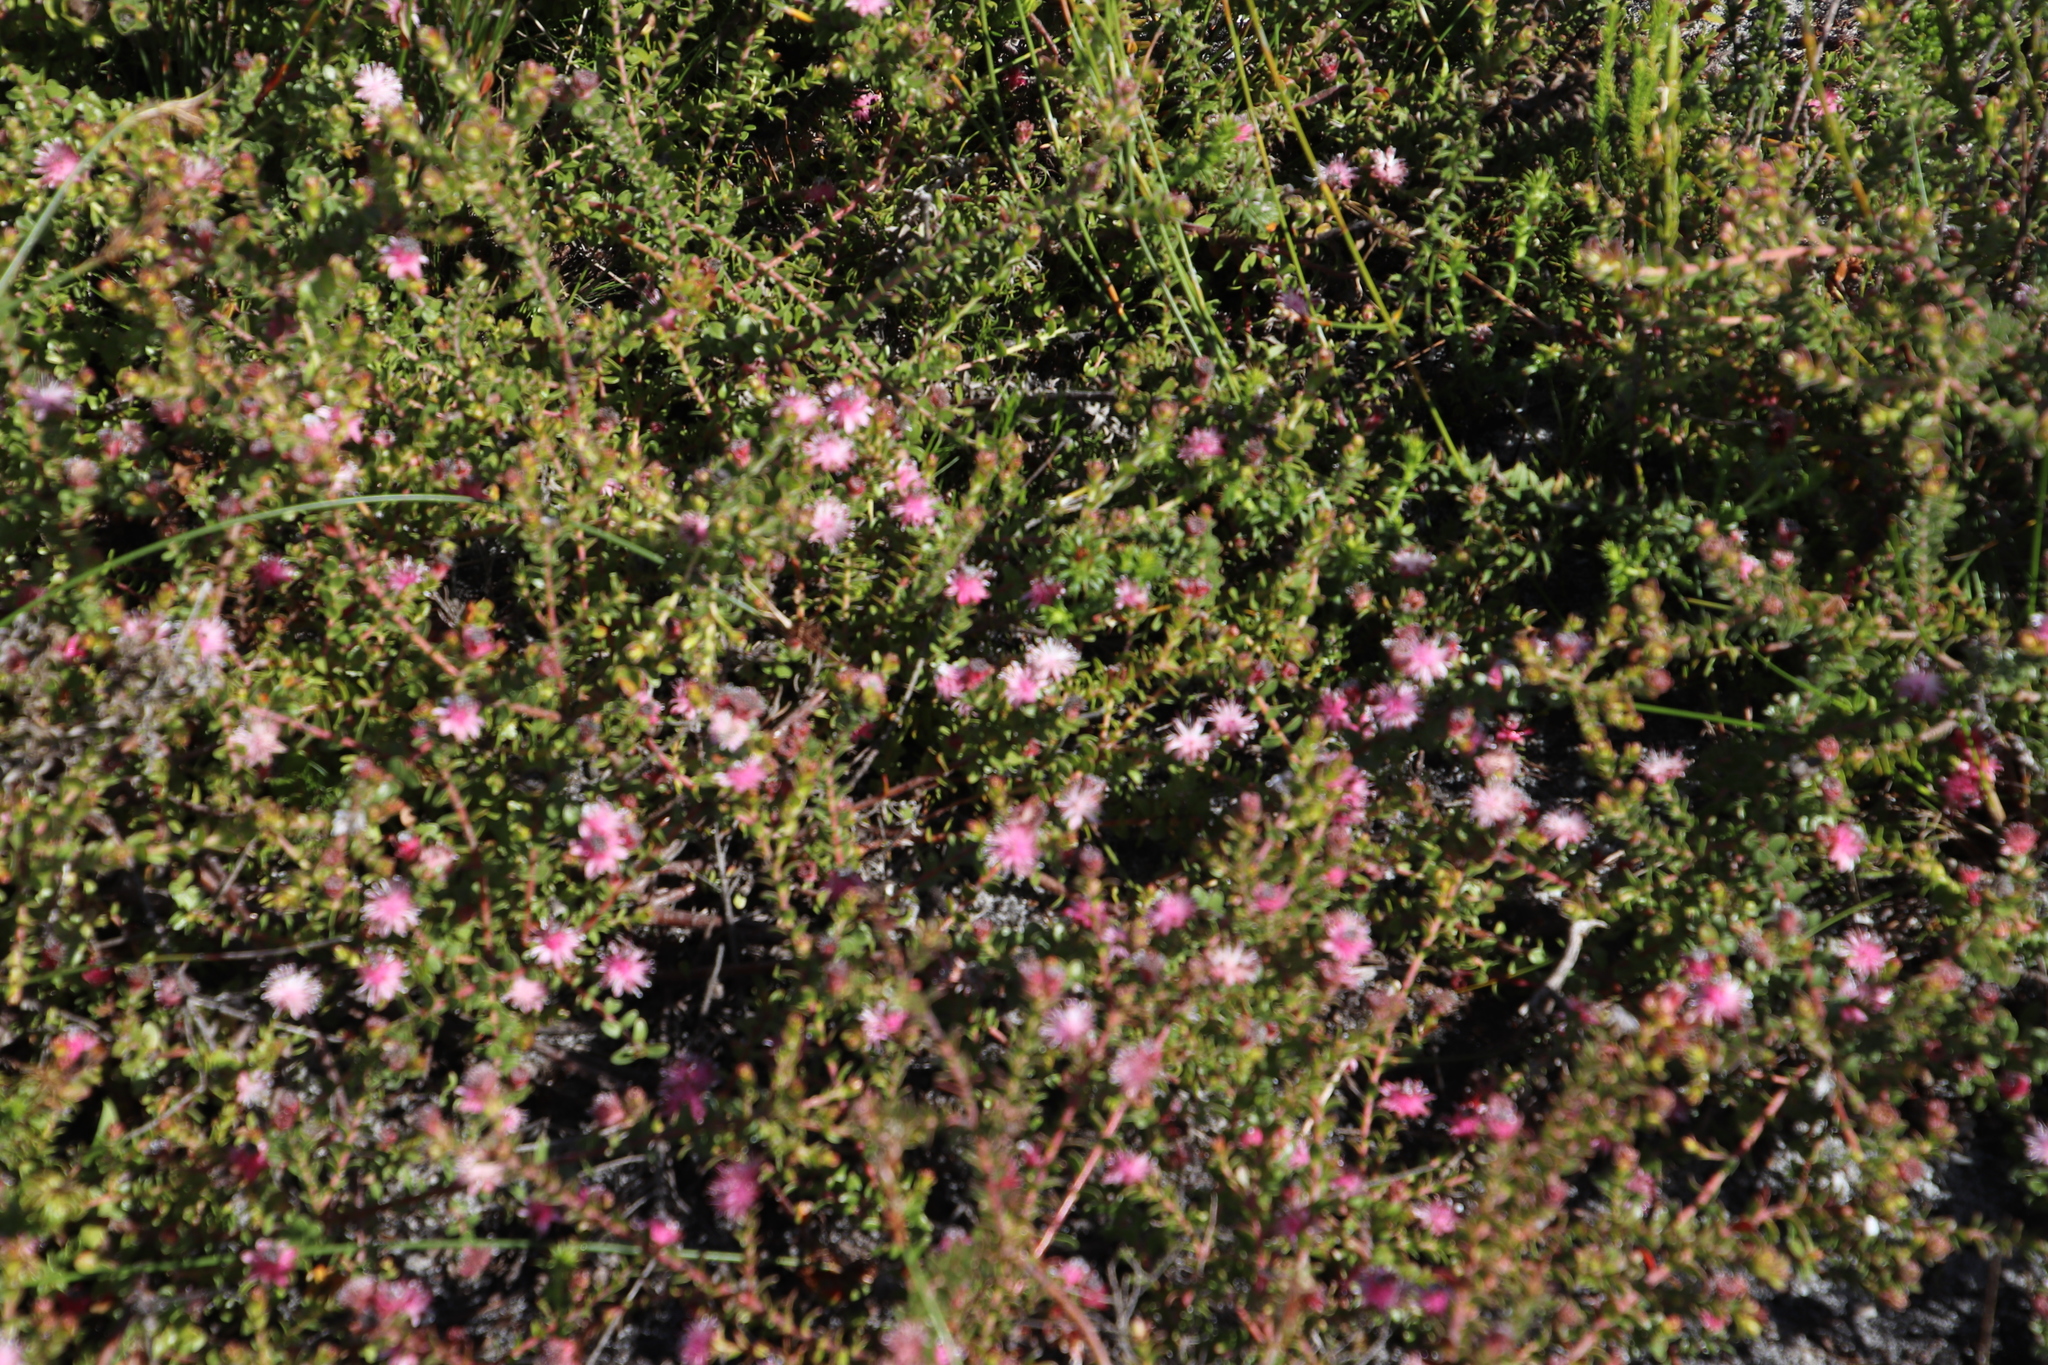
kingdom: Plantae
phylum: Tracheophyta
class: Magnoliopsida
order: Proteales
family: Proteaceae
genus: Diastella
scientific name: Diastella divaricata
